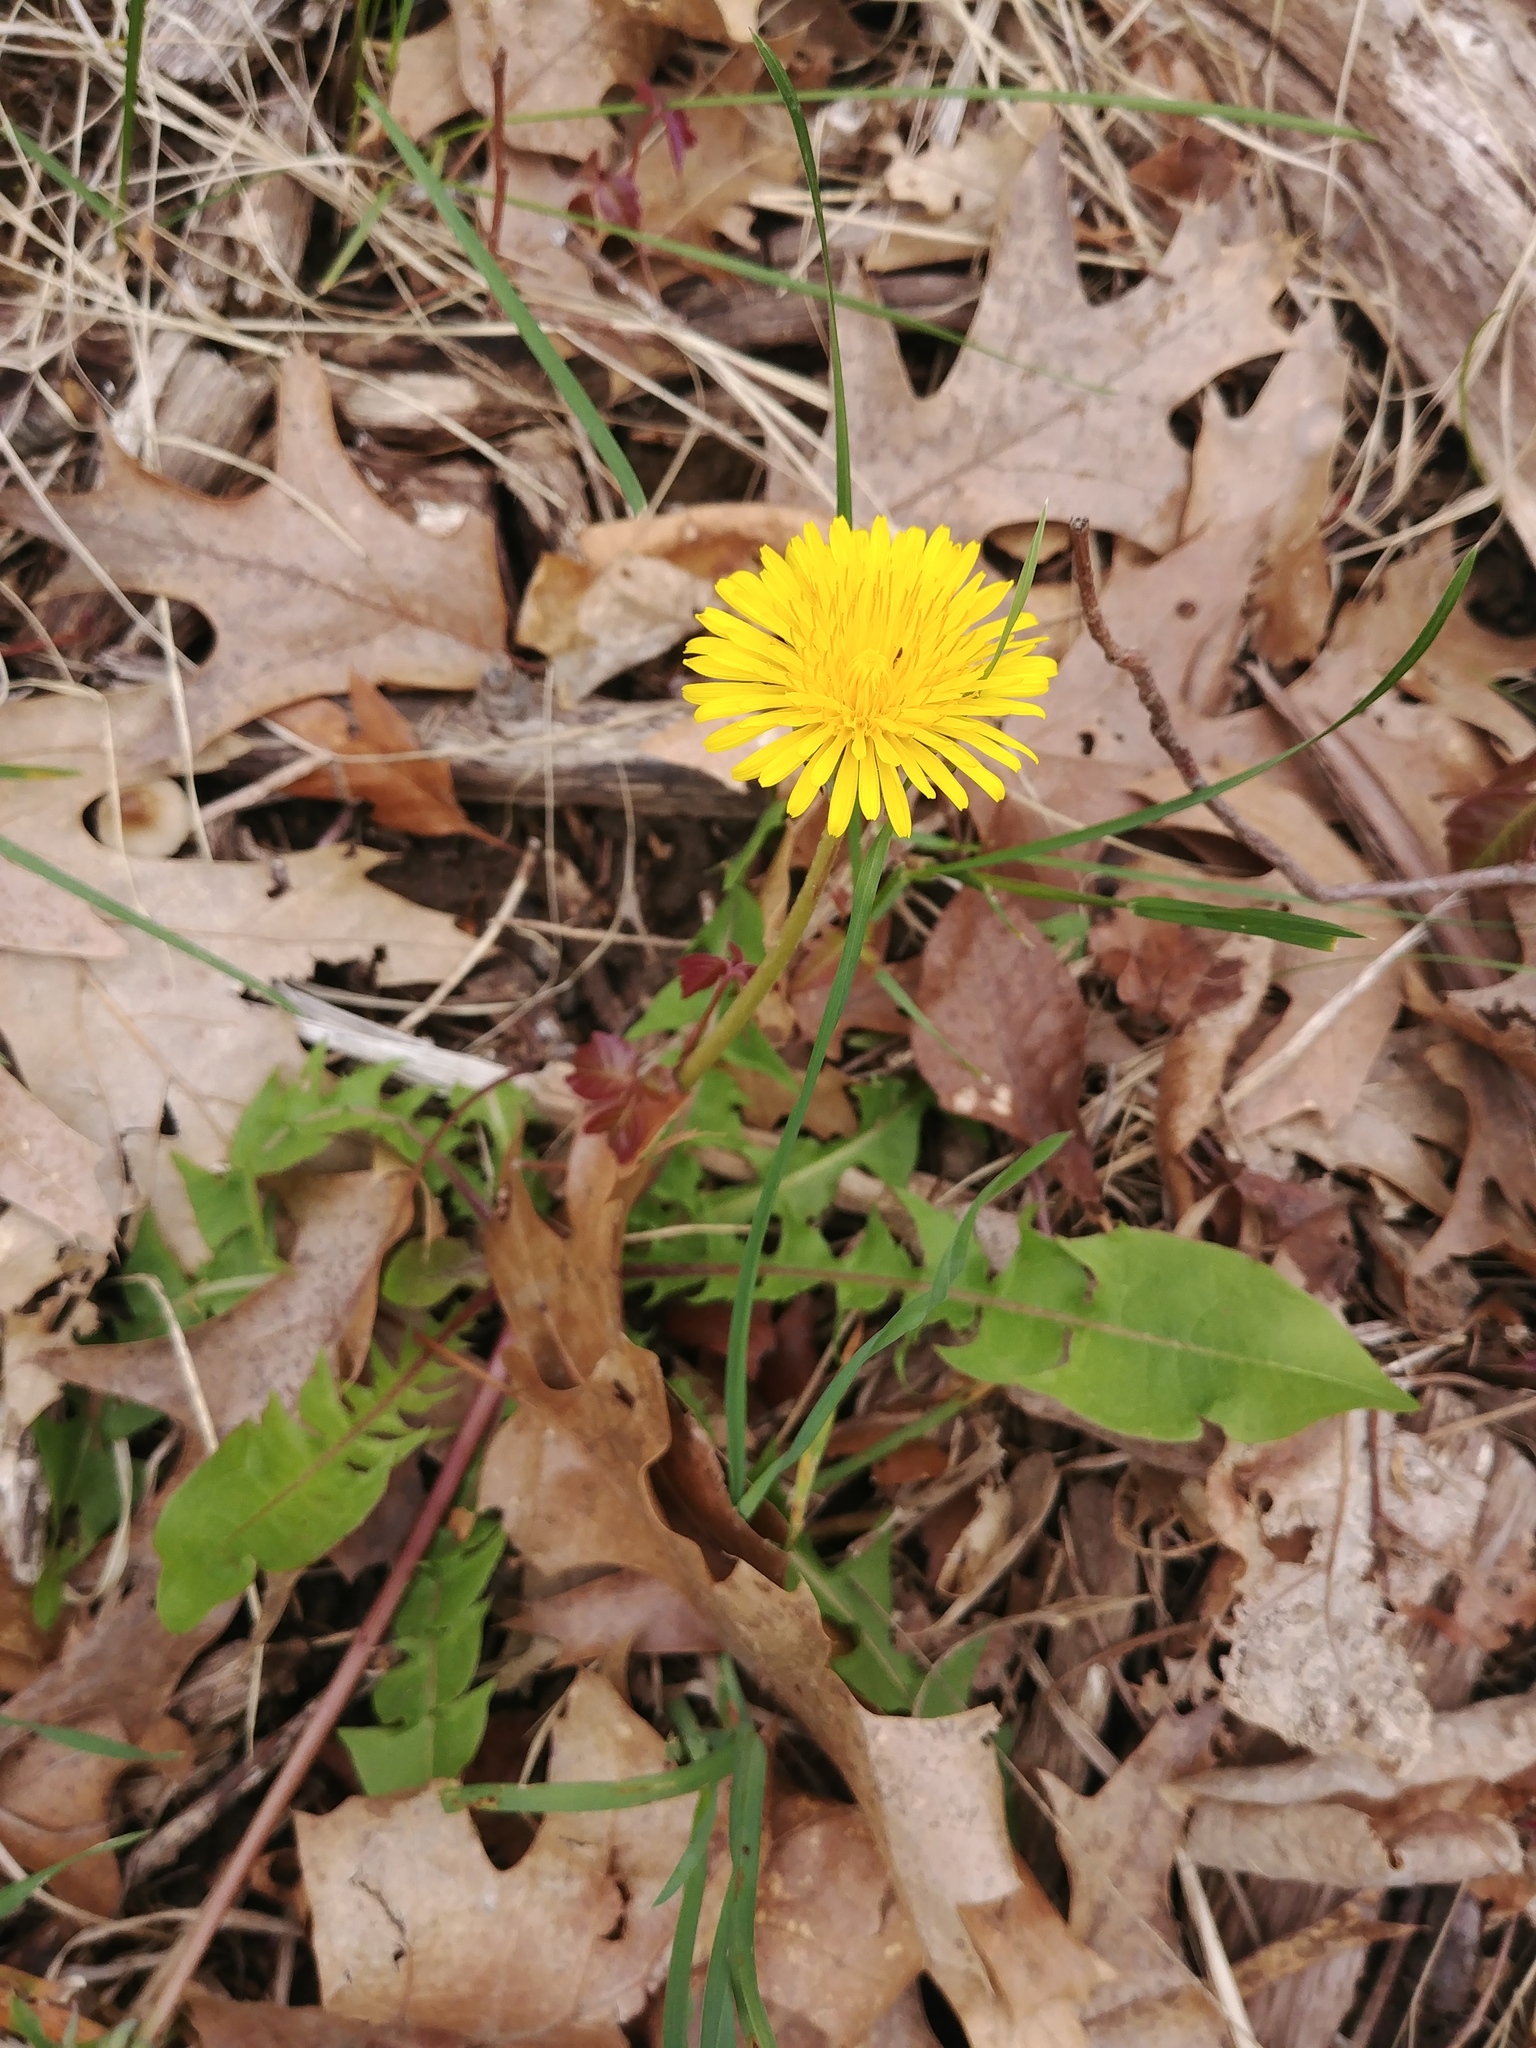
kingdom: Plantae
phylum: Tracheophyta
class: Magnoliopsida
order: Asterales
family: Asteraceae
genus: Taraxacum
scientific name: Taraxacum officinale
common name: Common dandelion
